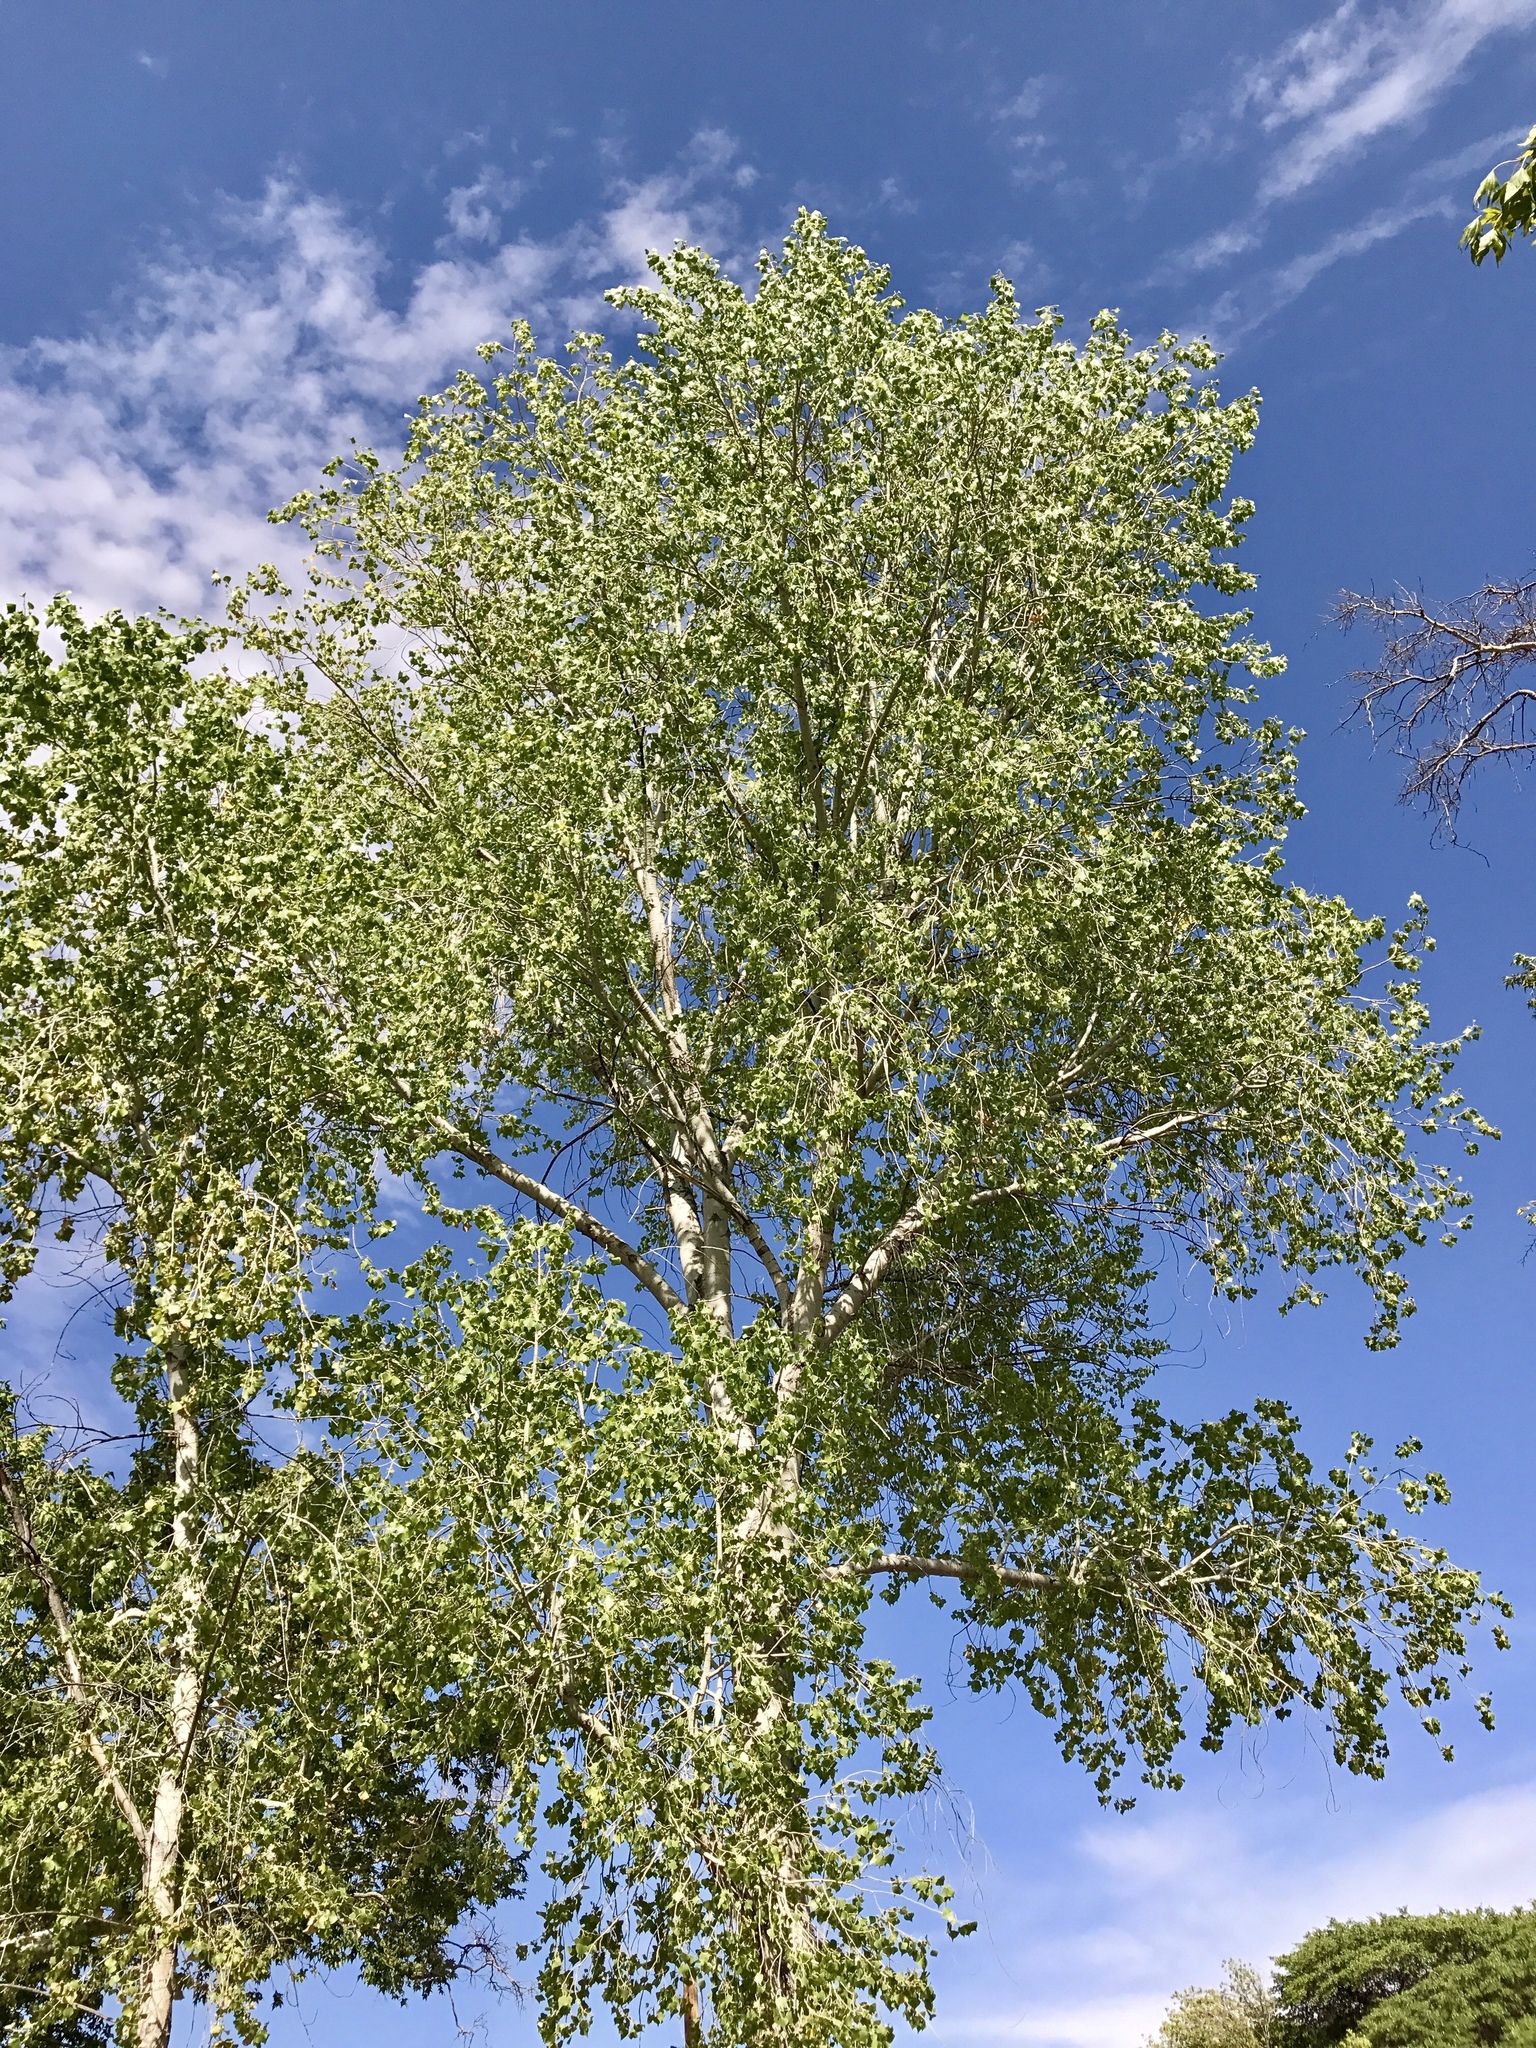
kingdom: Plantae
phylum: Tracheophyta
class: Magnoliopsida
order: Malpighiales
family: Salicaceae
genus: Populus
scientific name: Populus fremontii
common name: Fremont's cottonwood
